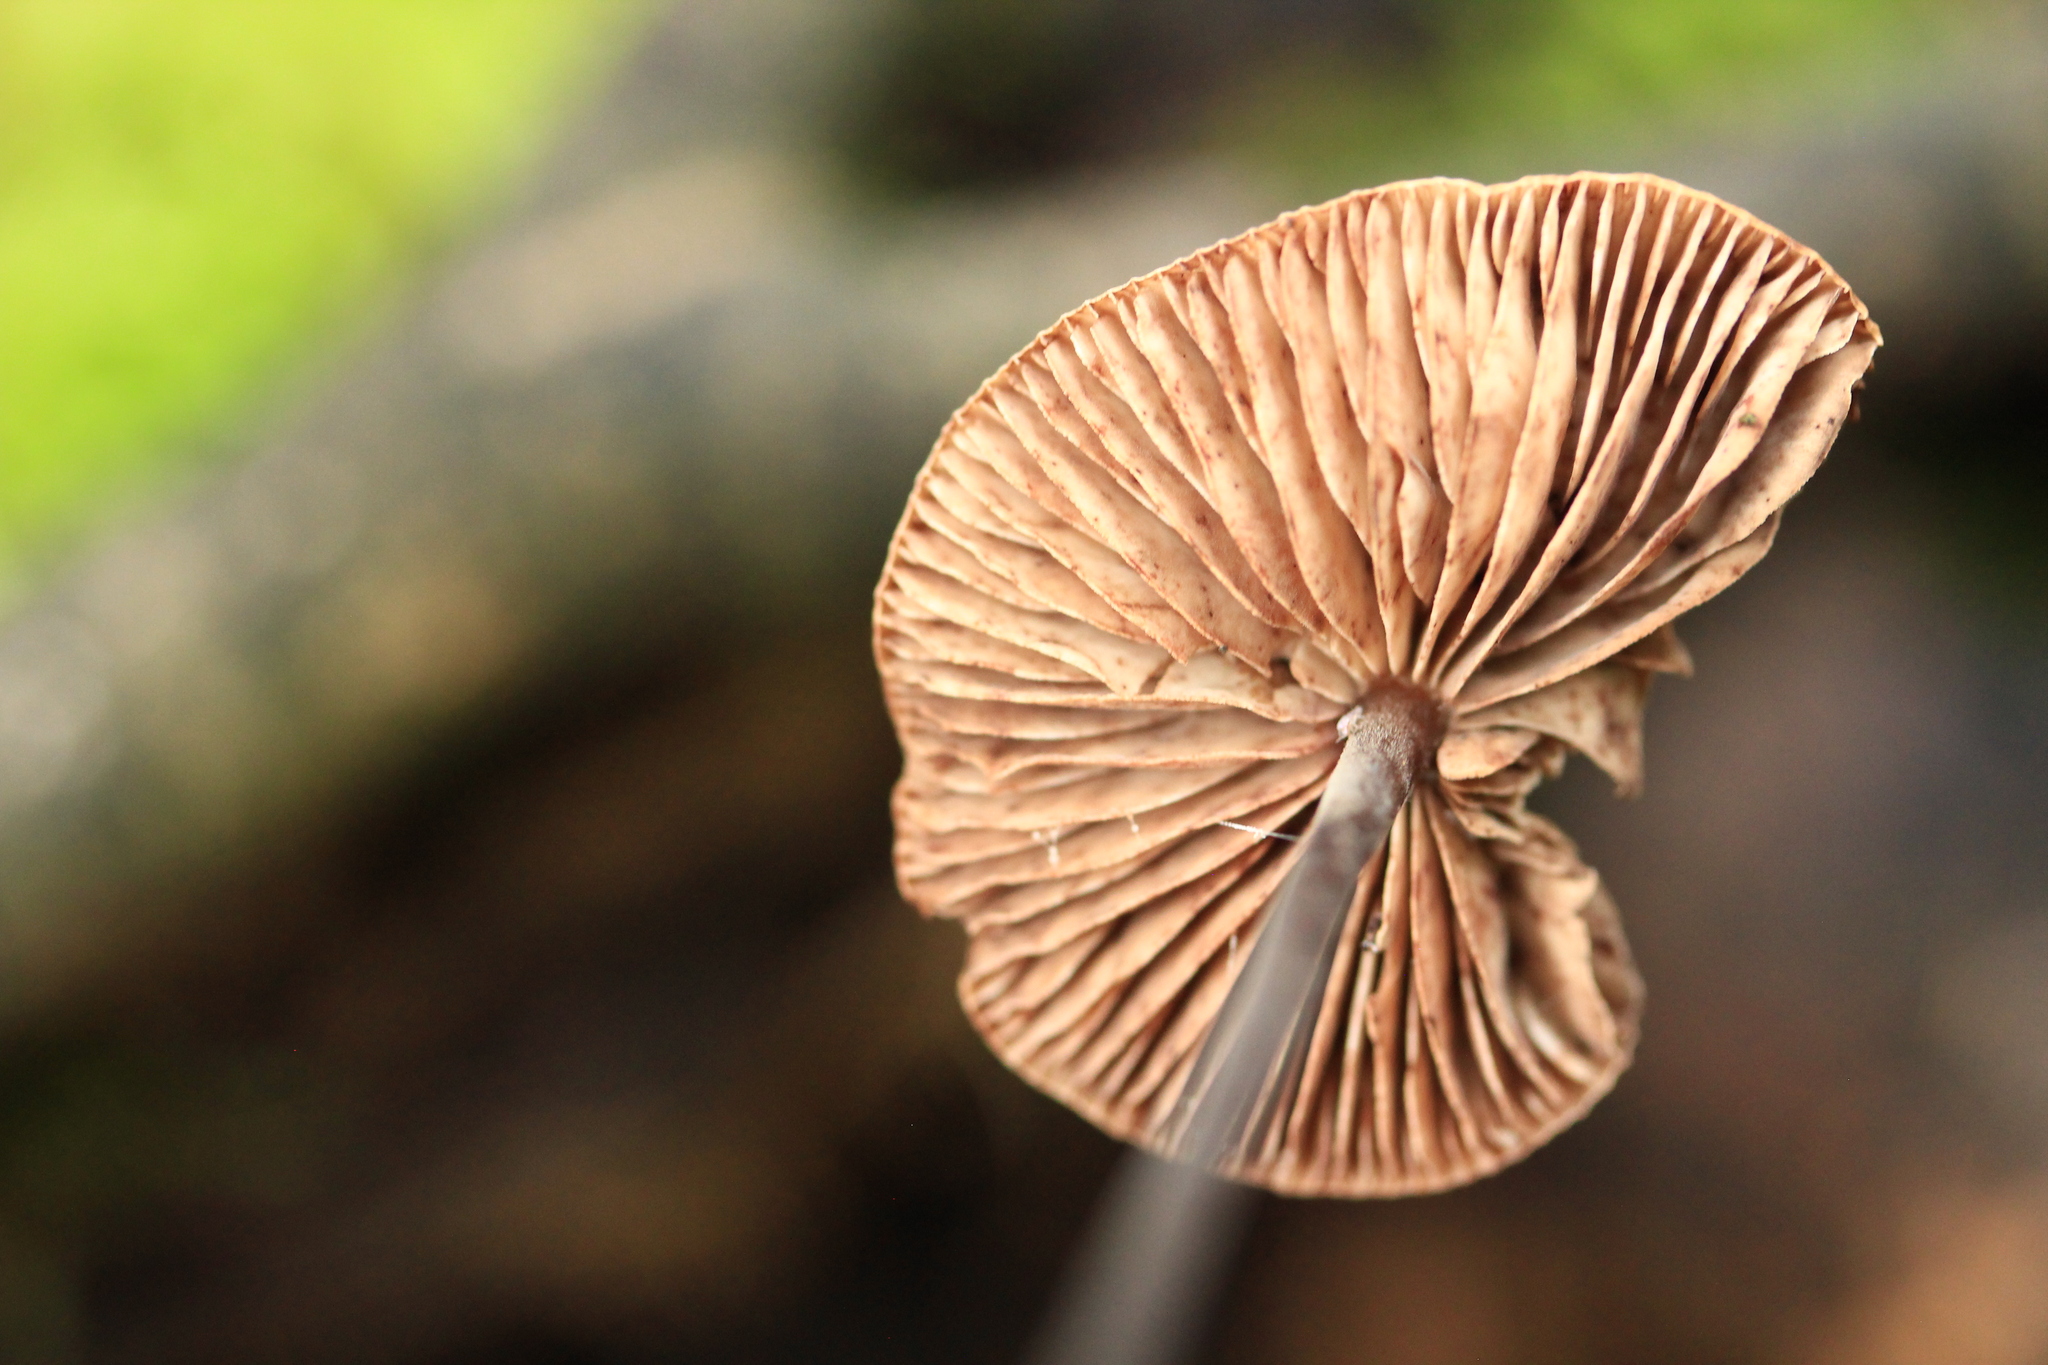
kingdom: Fungi
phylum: Basidiomycota
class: Agaricomycetes
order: Agaricales
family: Omphalotaceae
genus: Mycetinis
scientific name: Mycetinis alliaceus
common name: Garlic parachute
